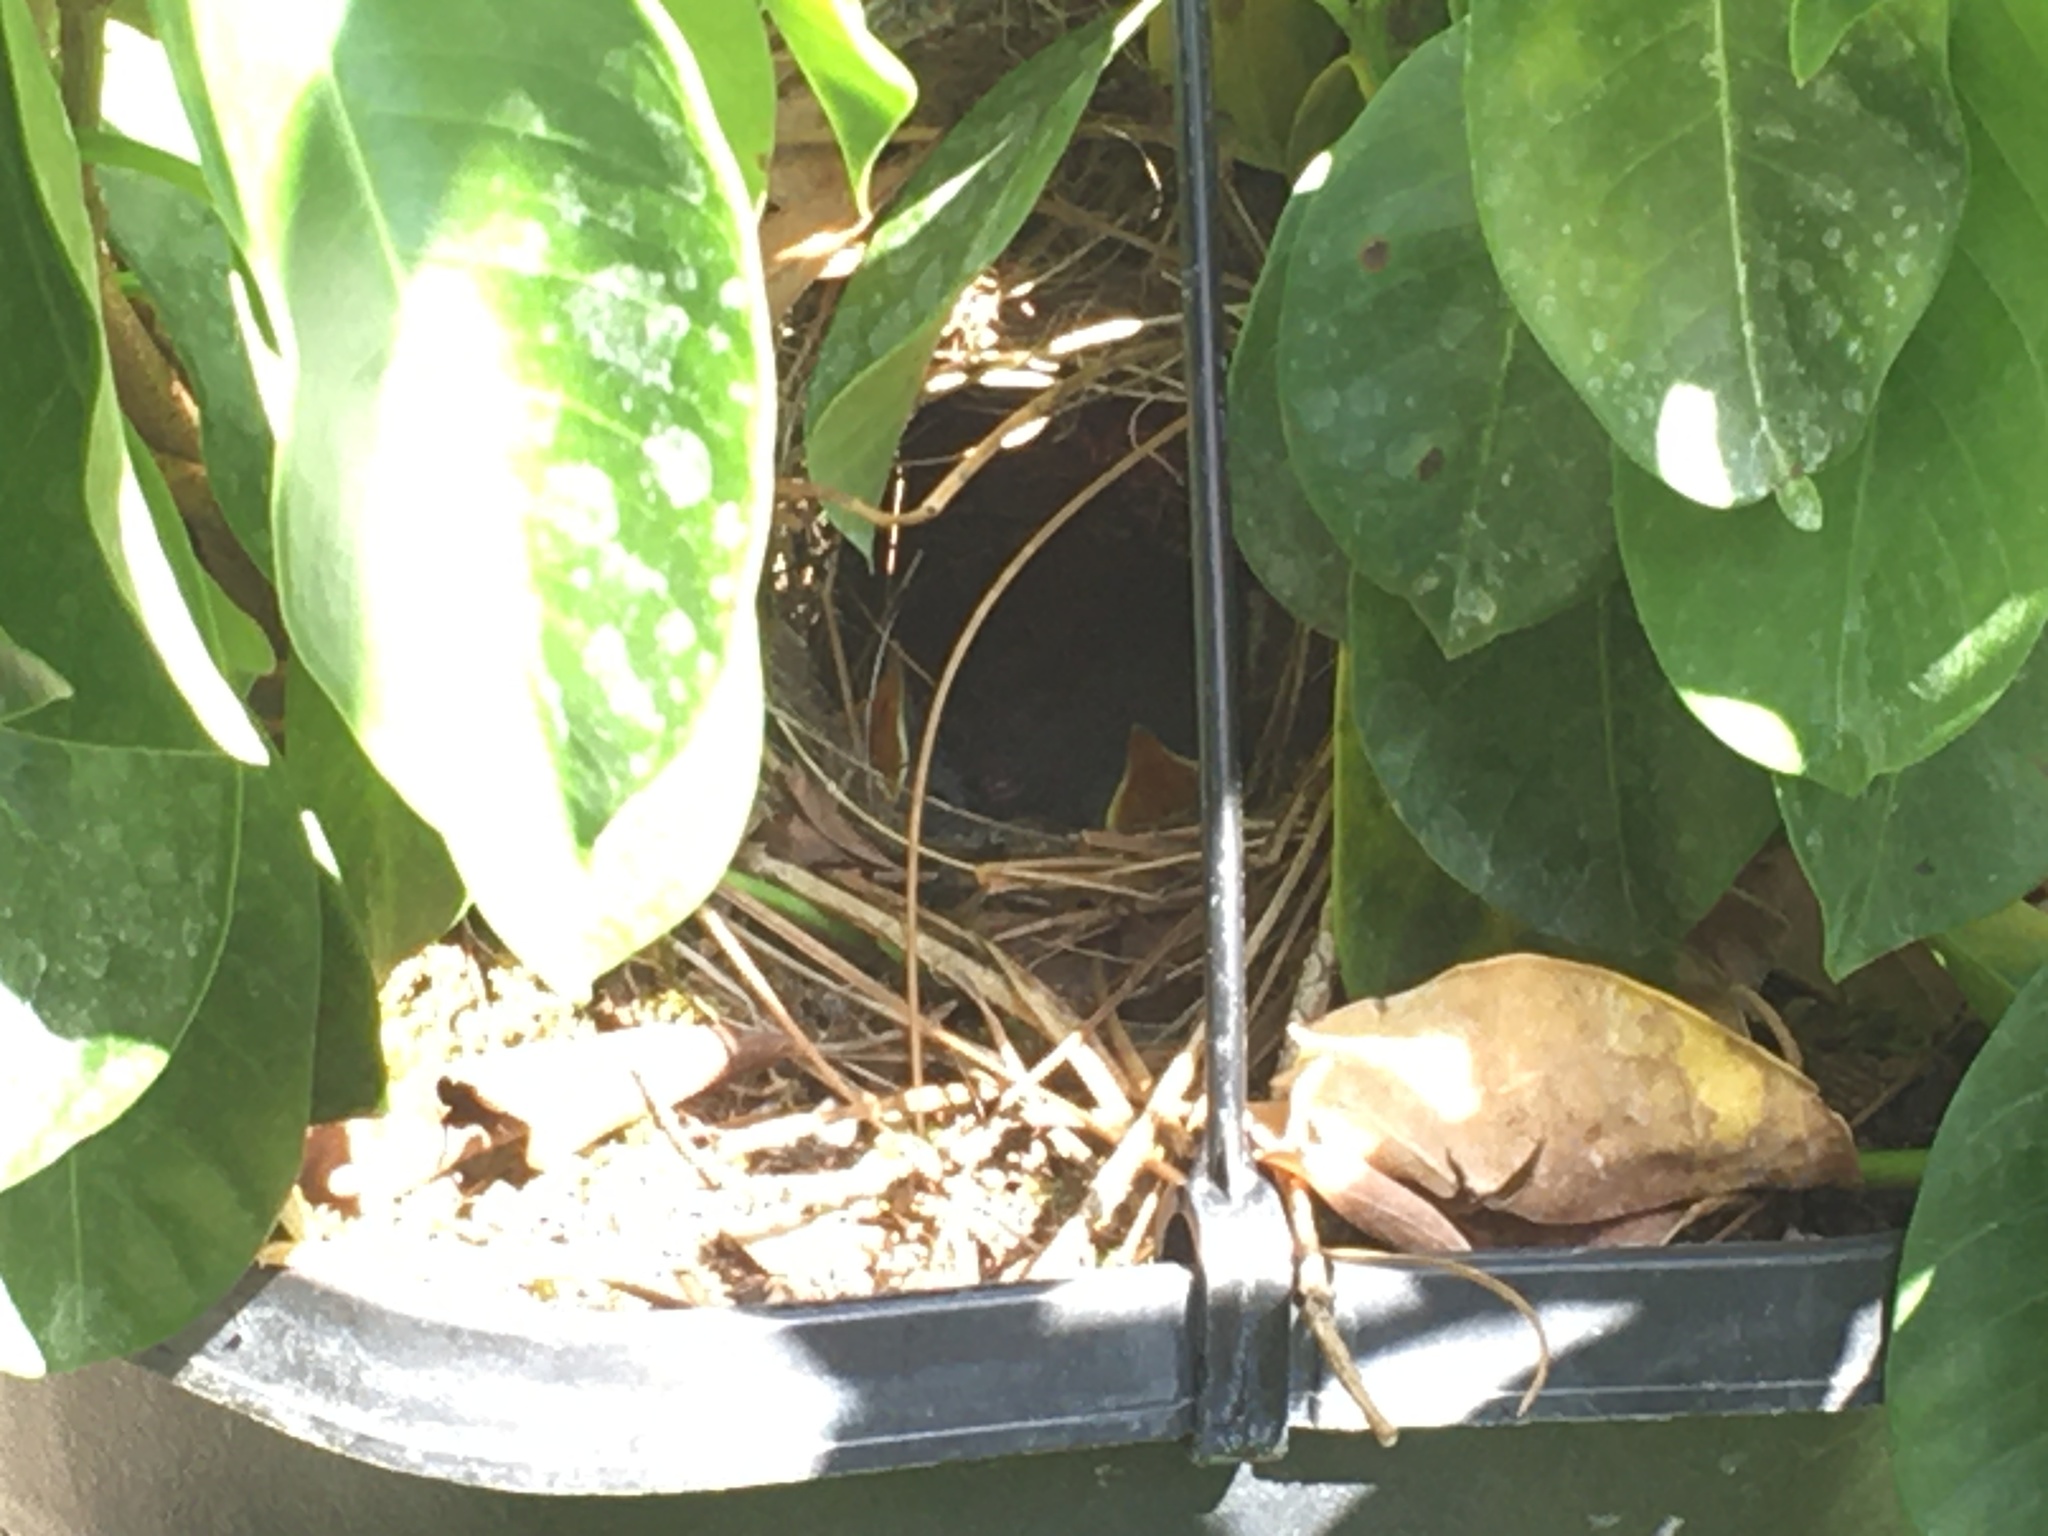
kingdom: Animalia
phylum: Chordata
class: Aves
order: Passeriformes
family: Troglodytidae
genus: Thryothorus
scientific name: Thryothorus ludovicianus
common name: Carolina wren
